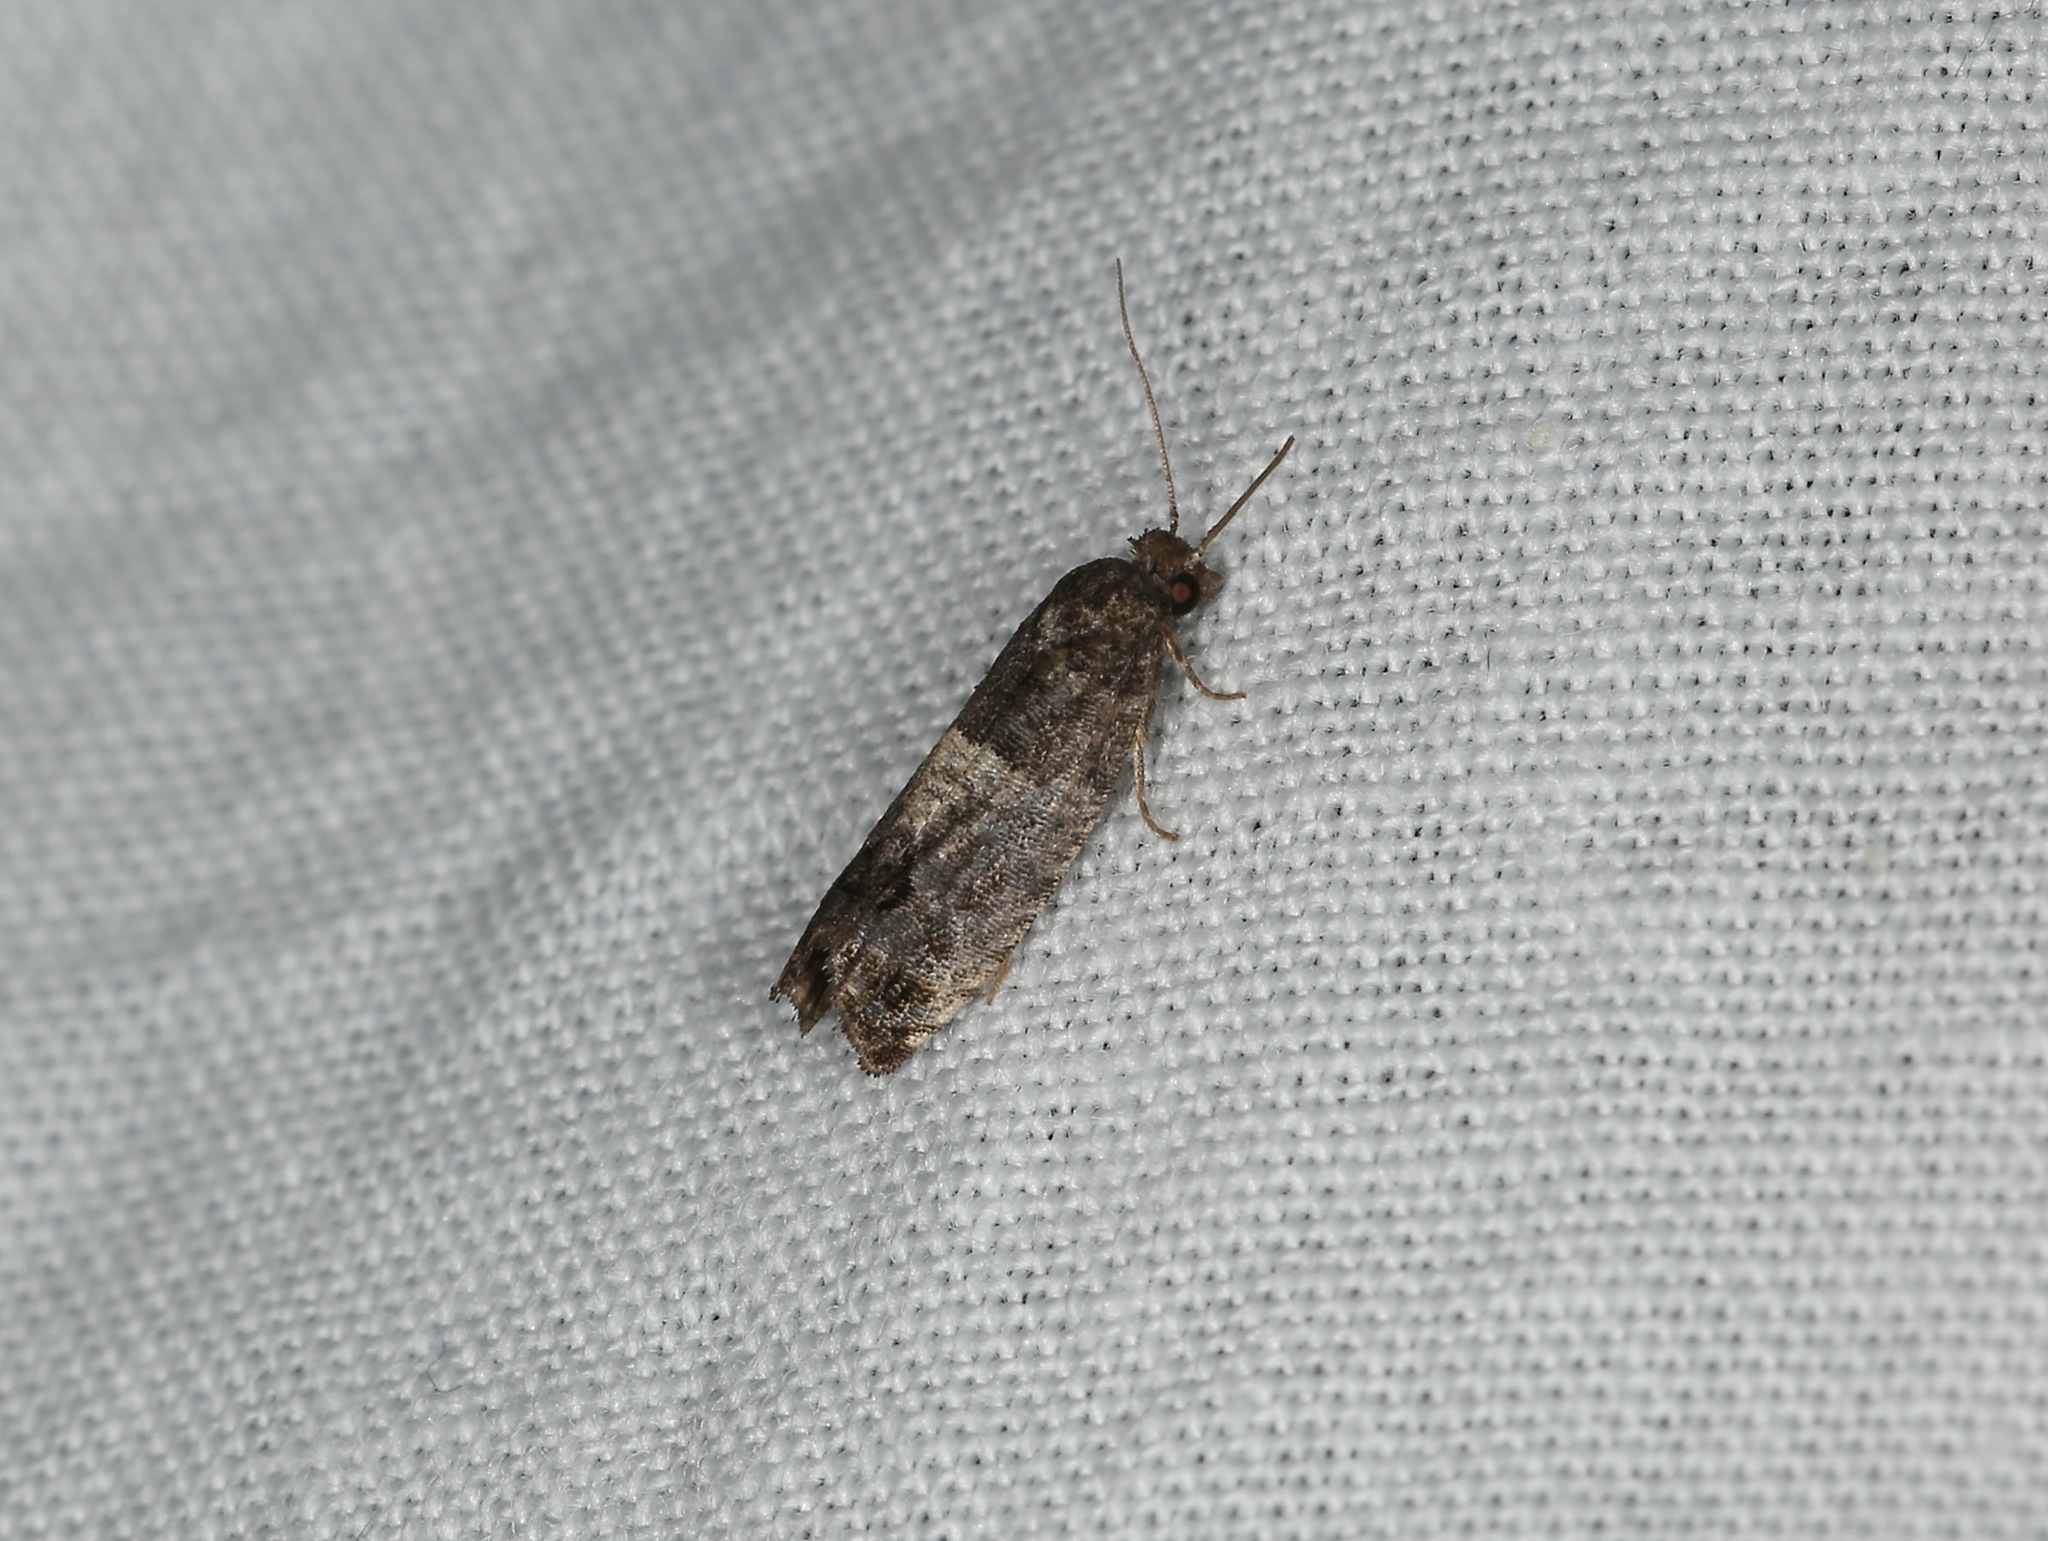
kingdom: Animalia
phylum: Arthropoda
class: Insecta
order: Lepidoptera
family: Tortricidae
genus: Spilonota
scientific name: Spilonota ocellana
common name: Bud moth
